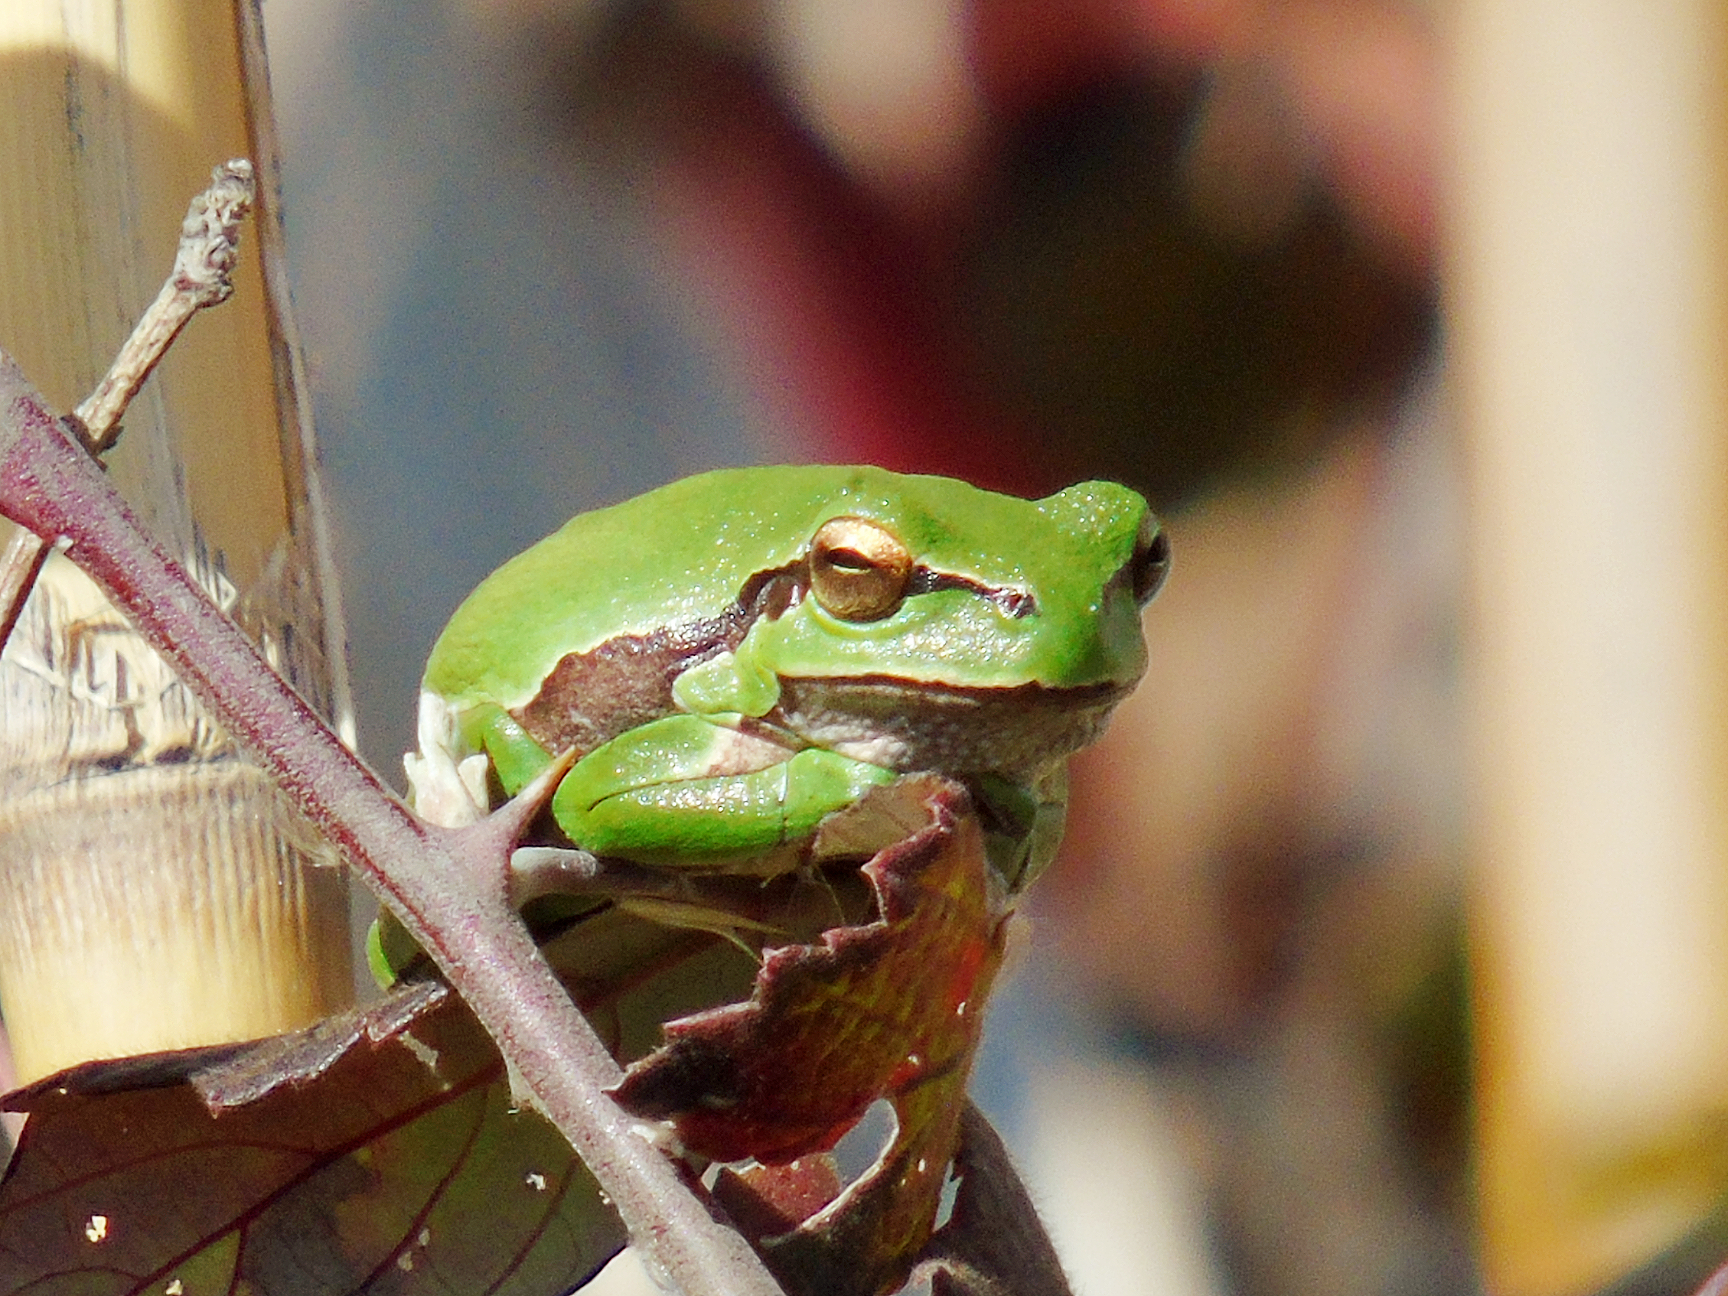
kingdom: Animalia
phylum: Chordata
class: Amphibia
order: Anura
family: Hylidae
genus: Hyla
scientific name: Hyla orientalis
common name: Caucasian treefrog
